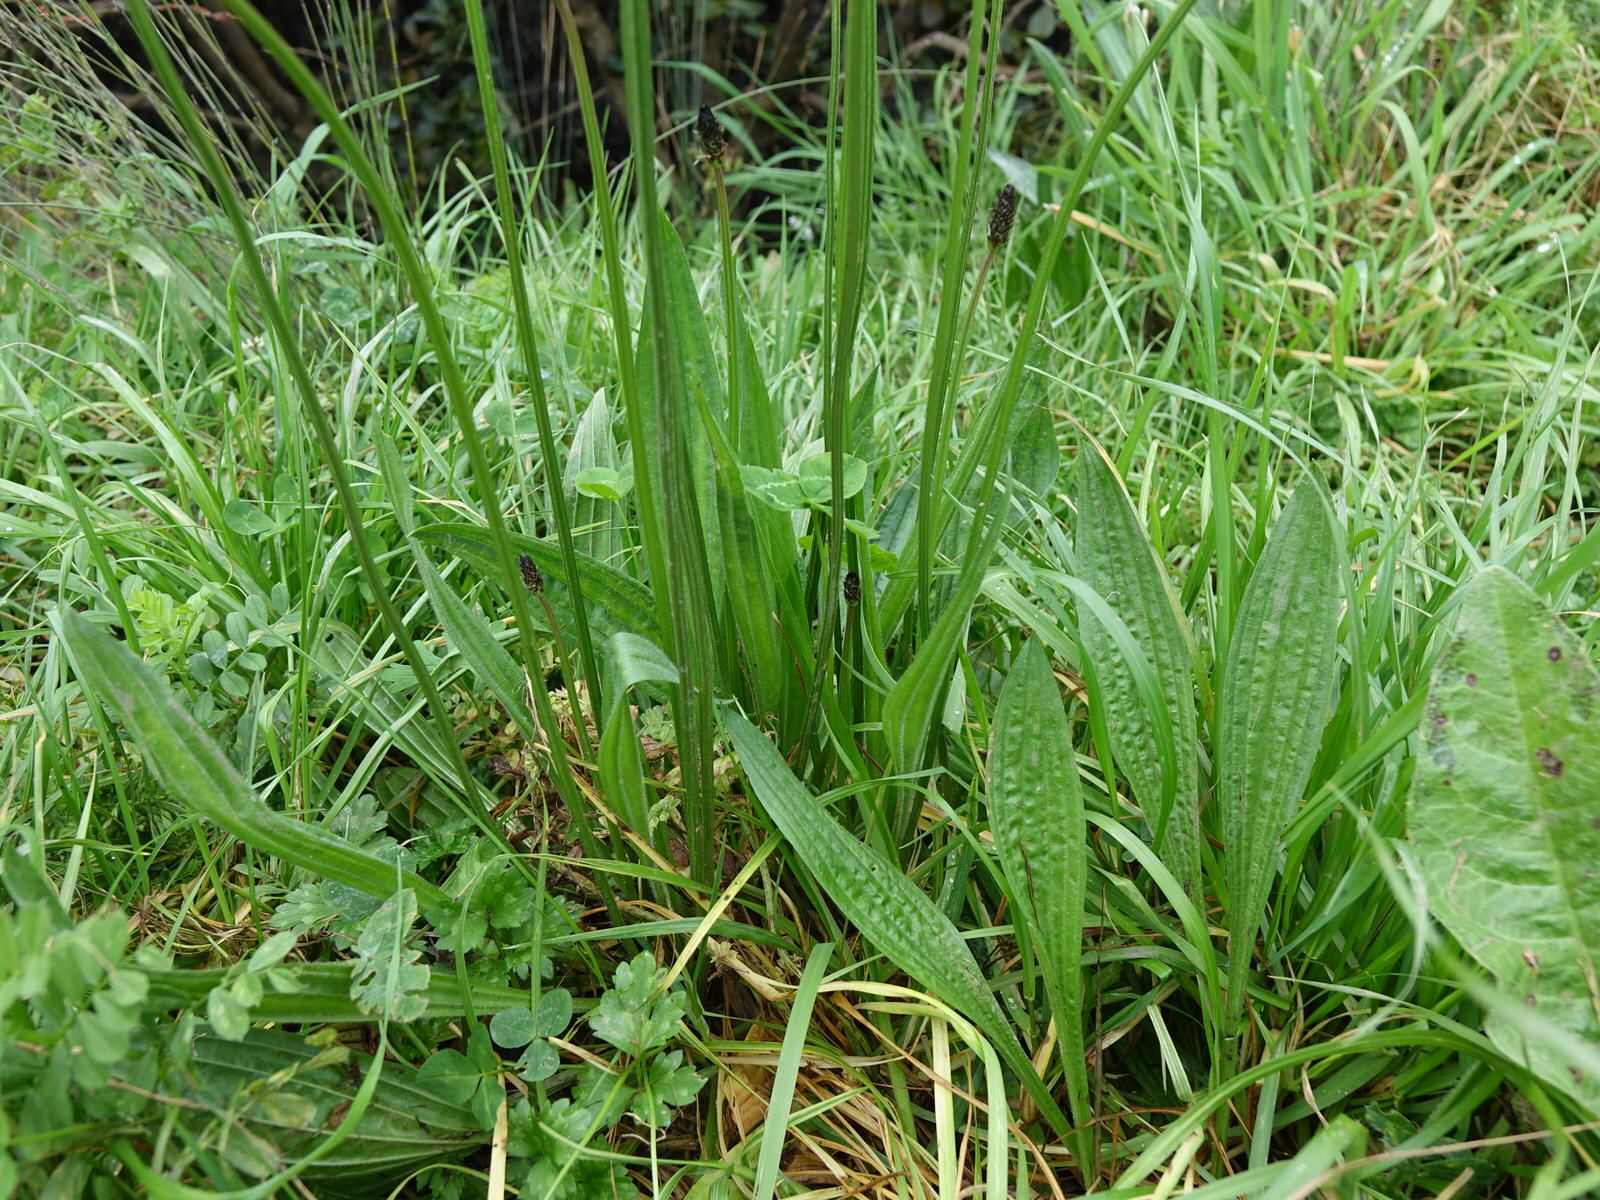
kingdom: Plantae
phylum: Tracheophyta
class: Magnoliopsida
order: Lamiales
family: Plantaginaceae
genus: Plantago
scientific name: Plantago lanceolata
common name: Ribwort plantain
